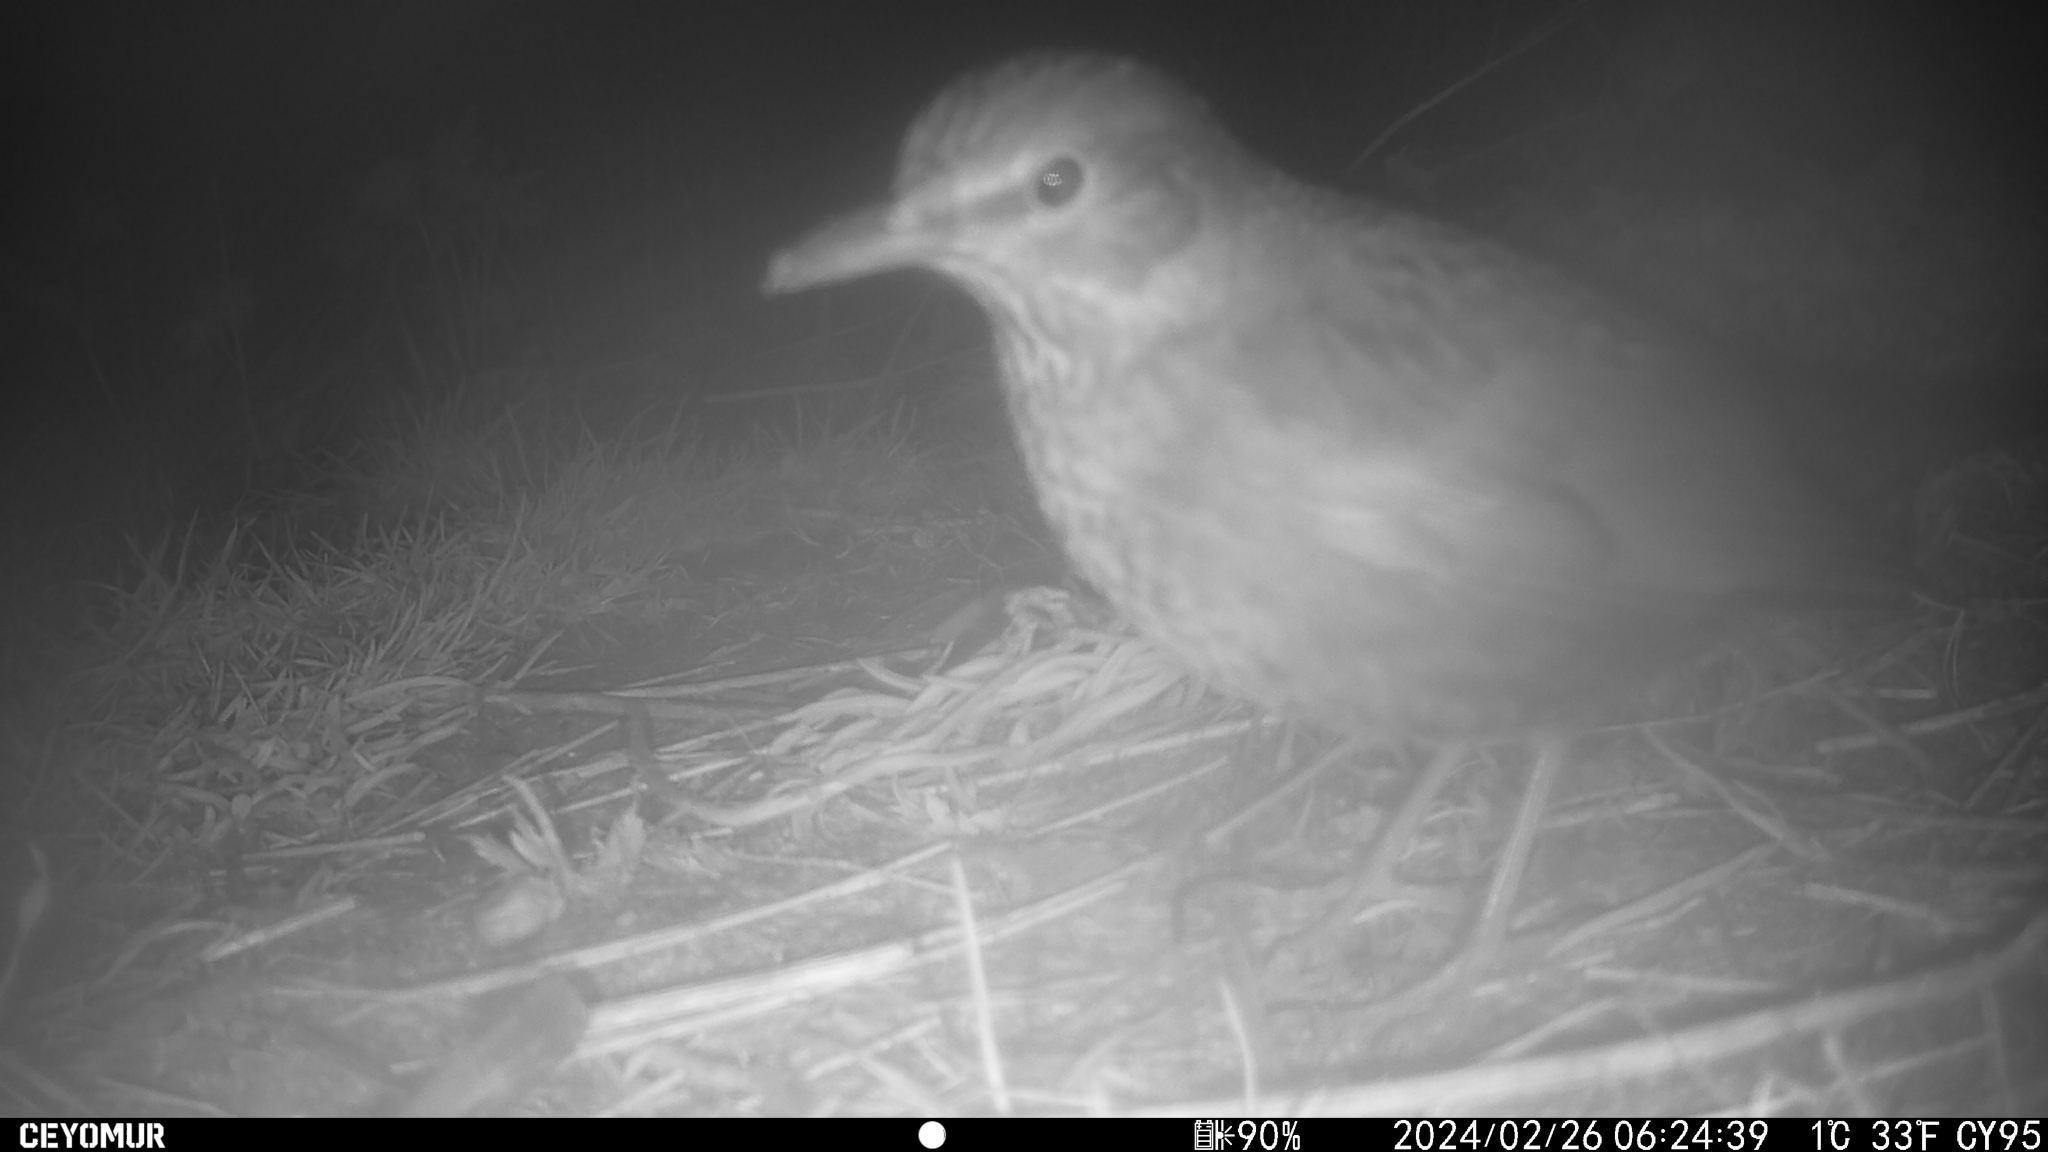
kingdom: Animalia
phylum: Chordata
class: Aves
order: Passeriformes
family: Turdidae
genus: Turdus
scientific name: Turdus merula
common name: Common blackbird
